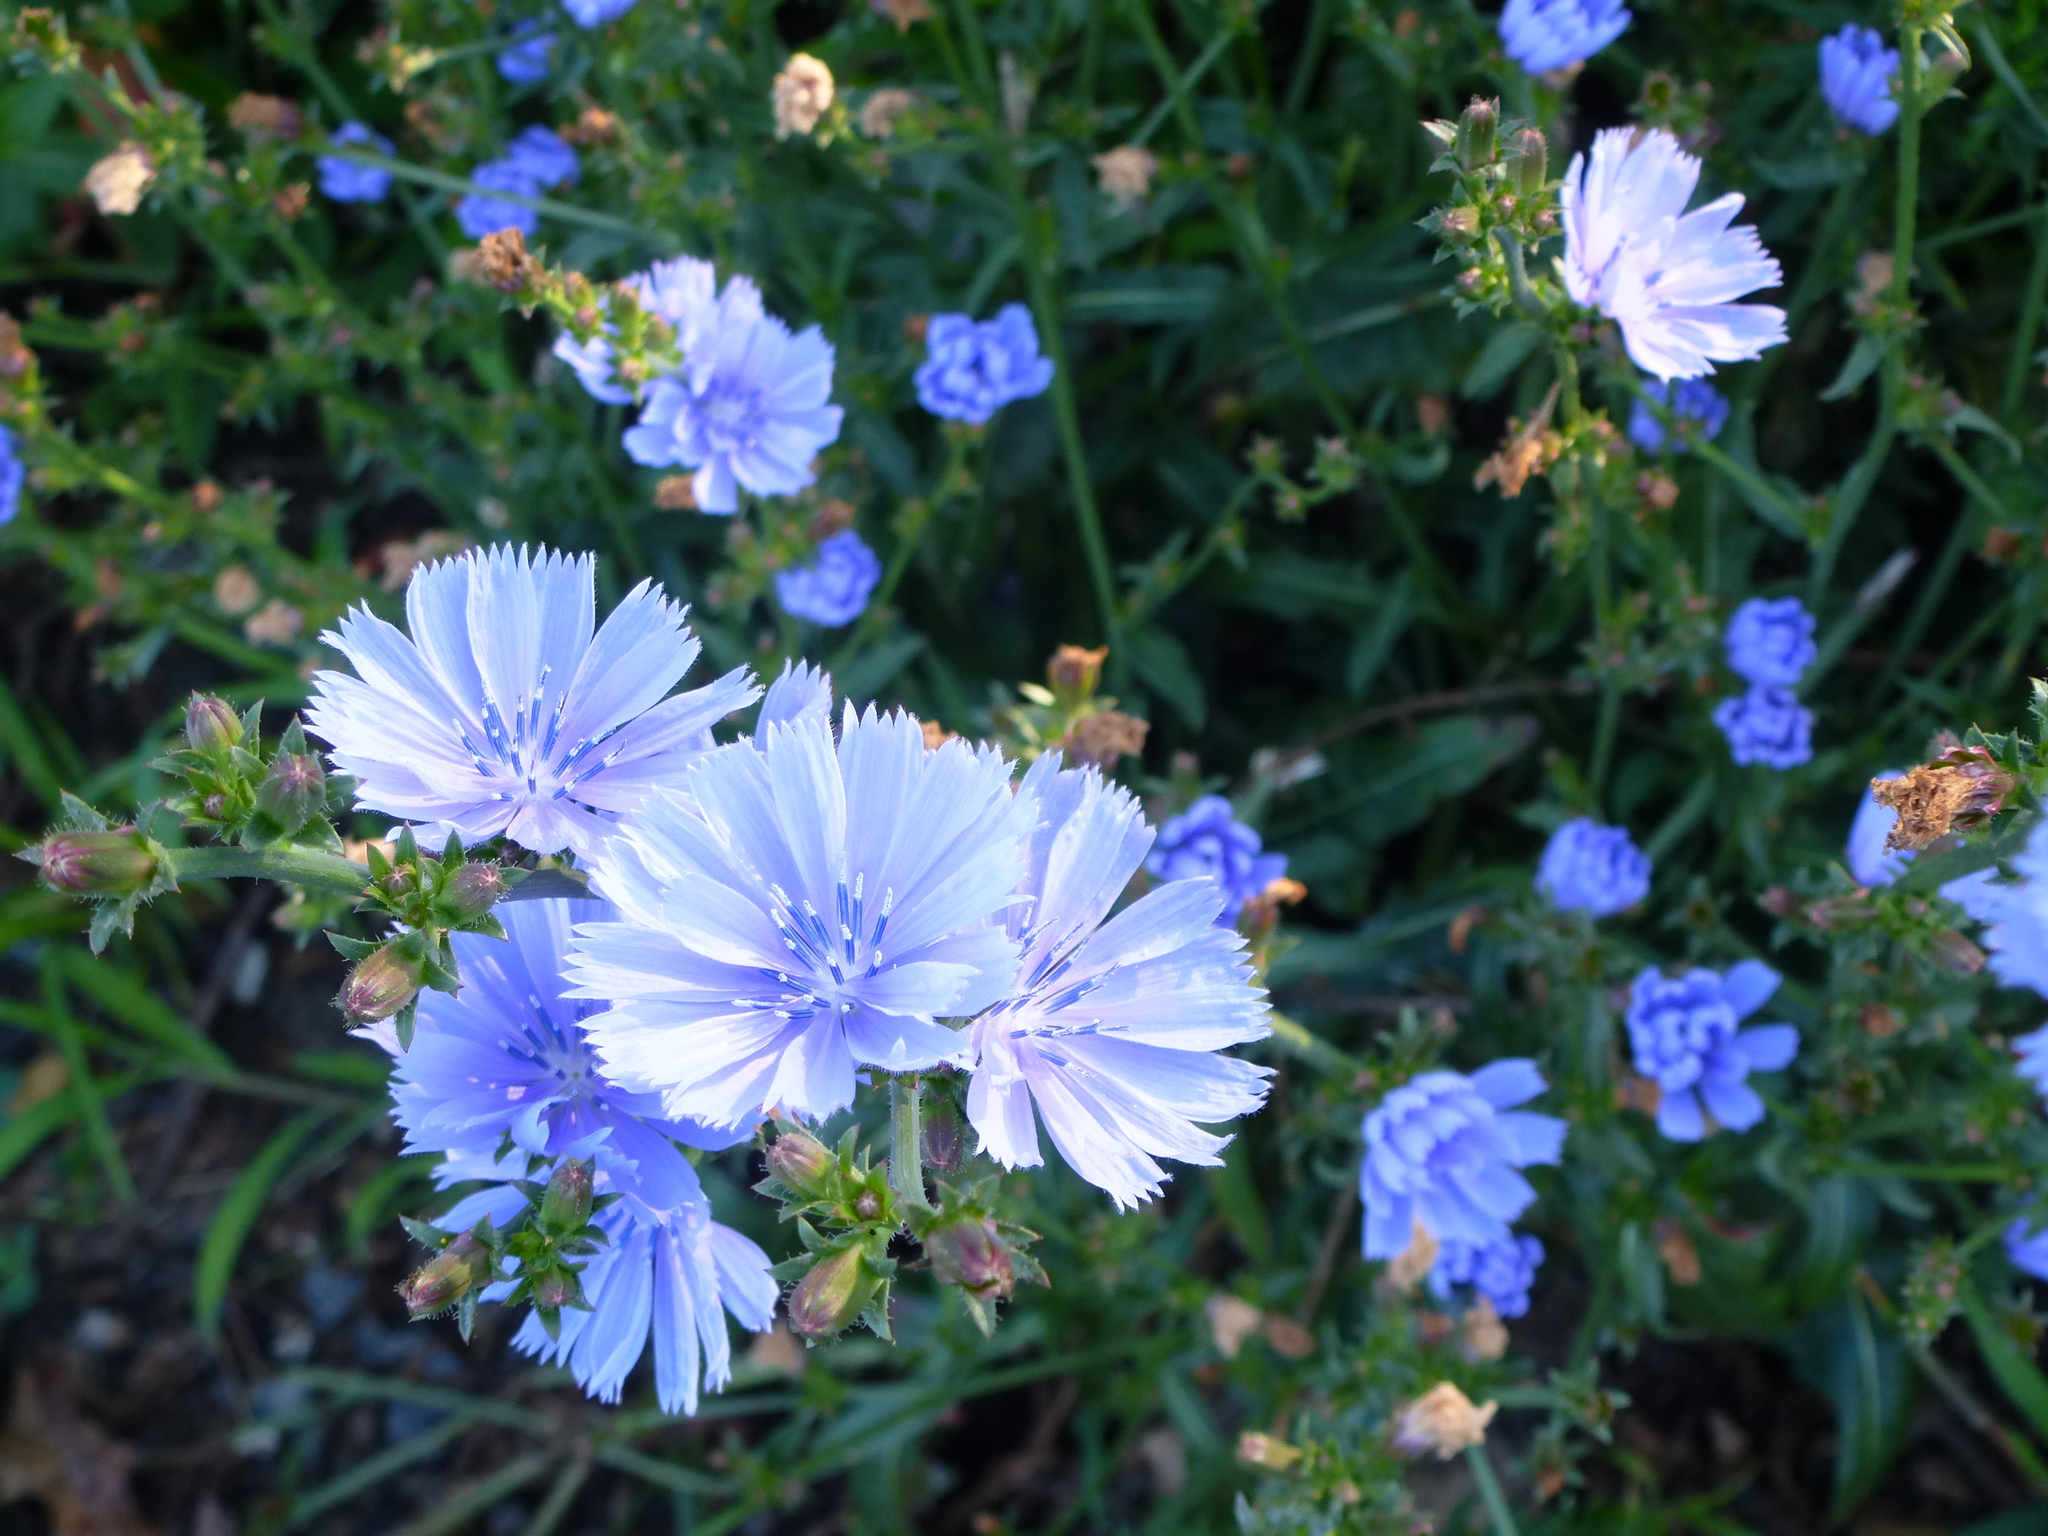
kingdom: Plantae
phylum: Tracheophyta
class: Magnoliopsida
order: Asterales
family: Asteraceae
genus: Cichorium
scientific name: Cichorium intybus
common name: Chicory
